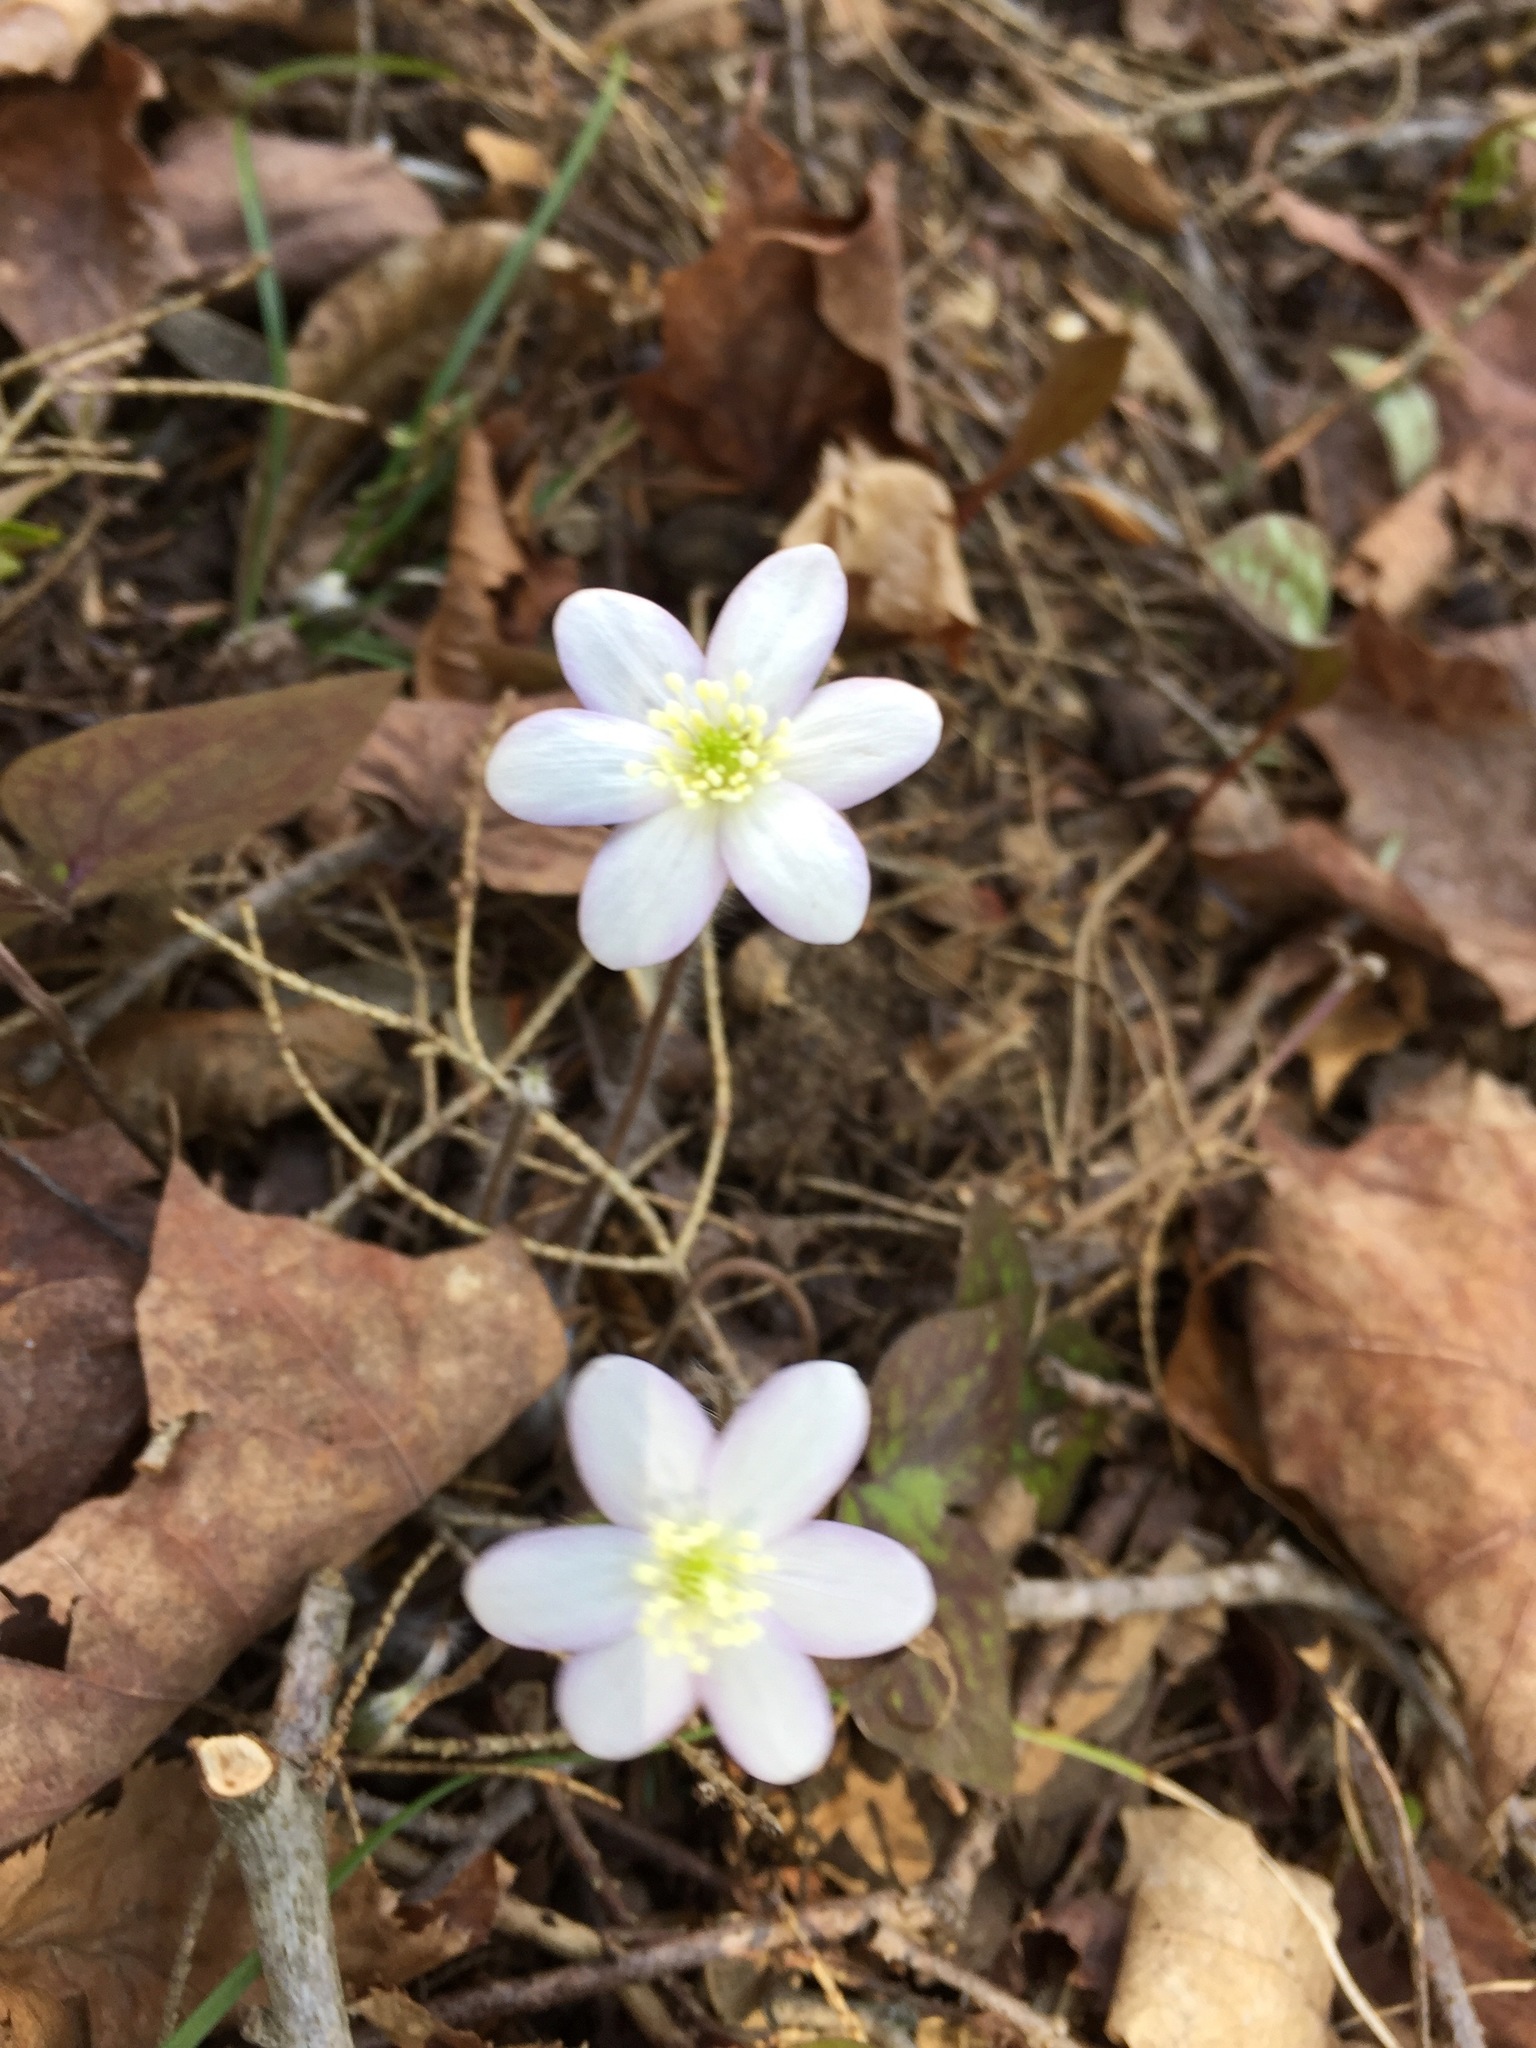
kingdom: Plantae
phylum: Tracheophyta
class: Magnoliopsida
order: Ranunculales
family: Ranunculaceae
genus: Hepatica
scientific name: Hepatica acutiloba
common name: Sharp-lobed hepatica
